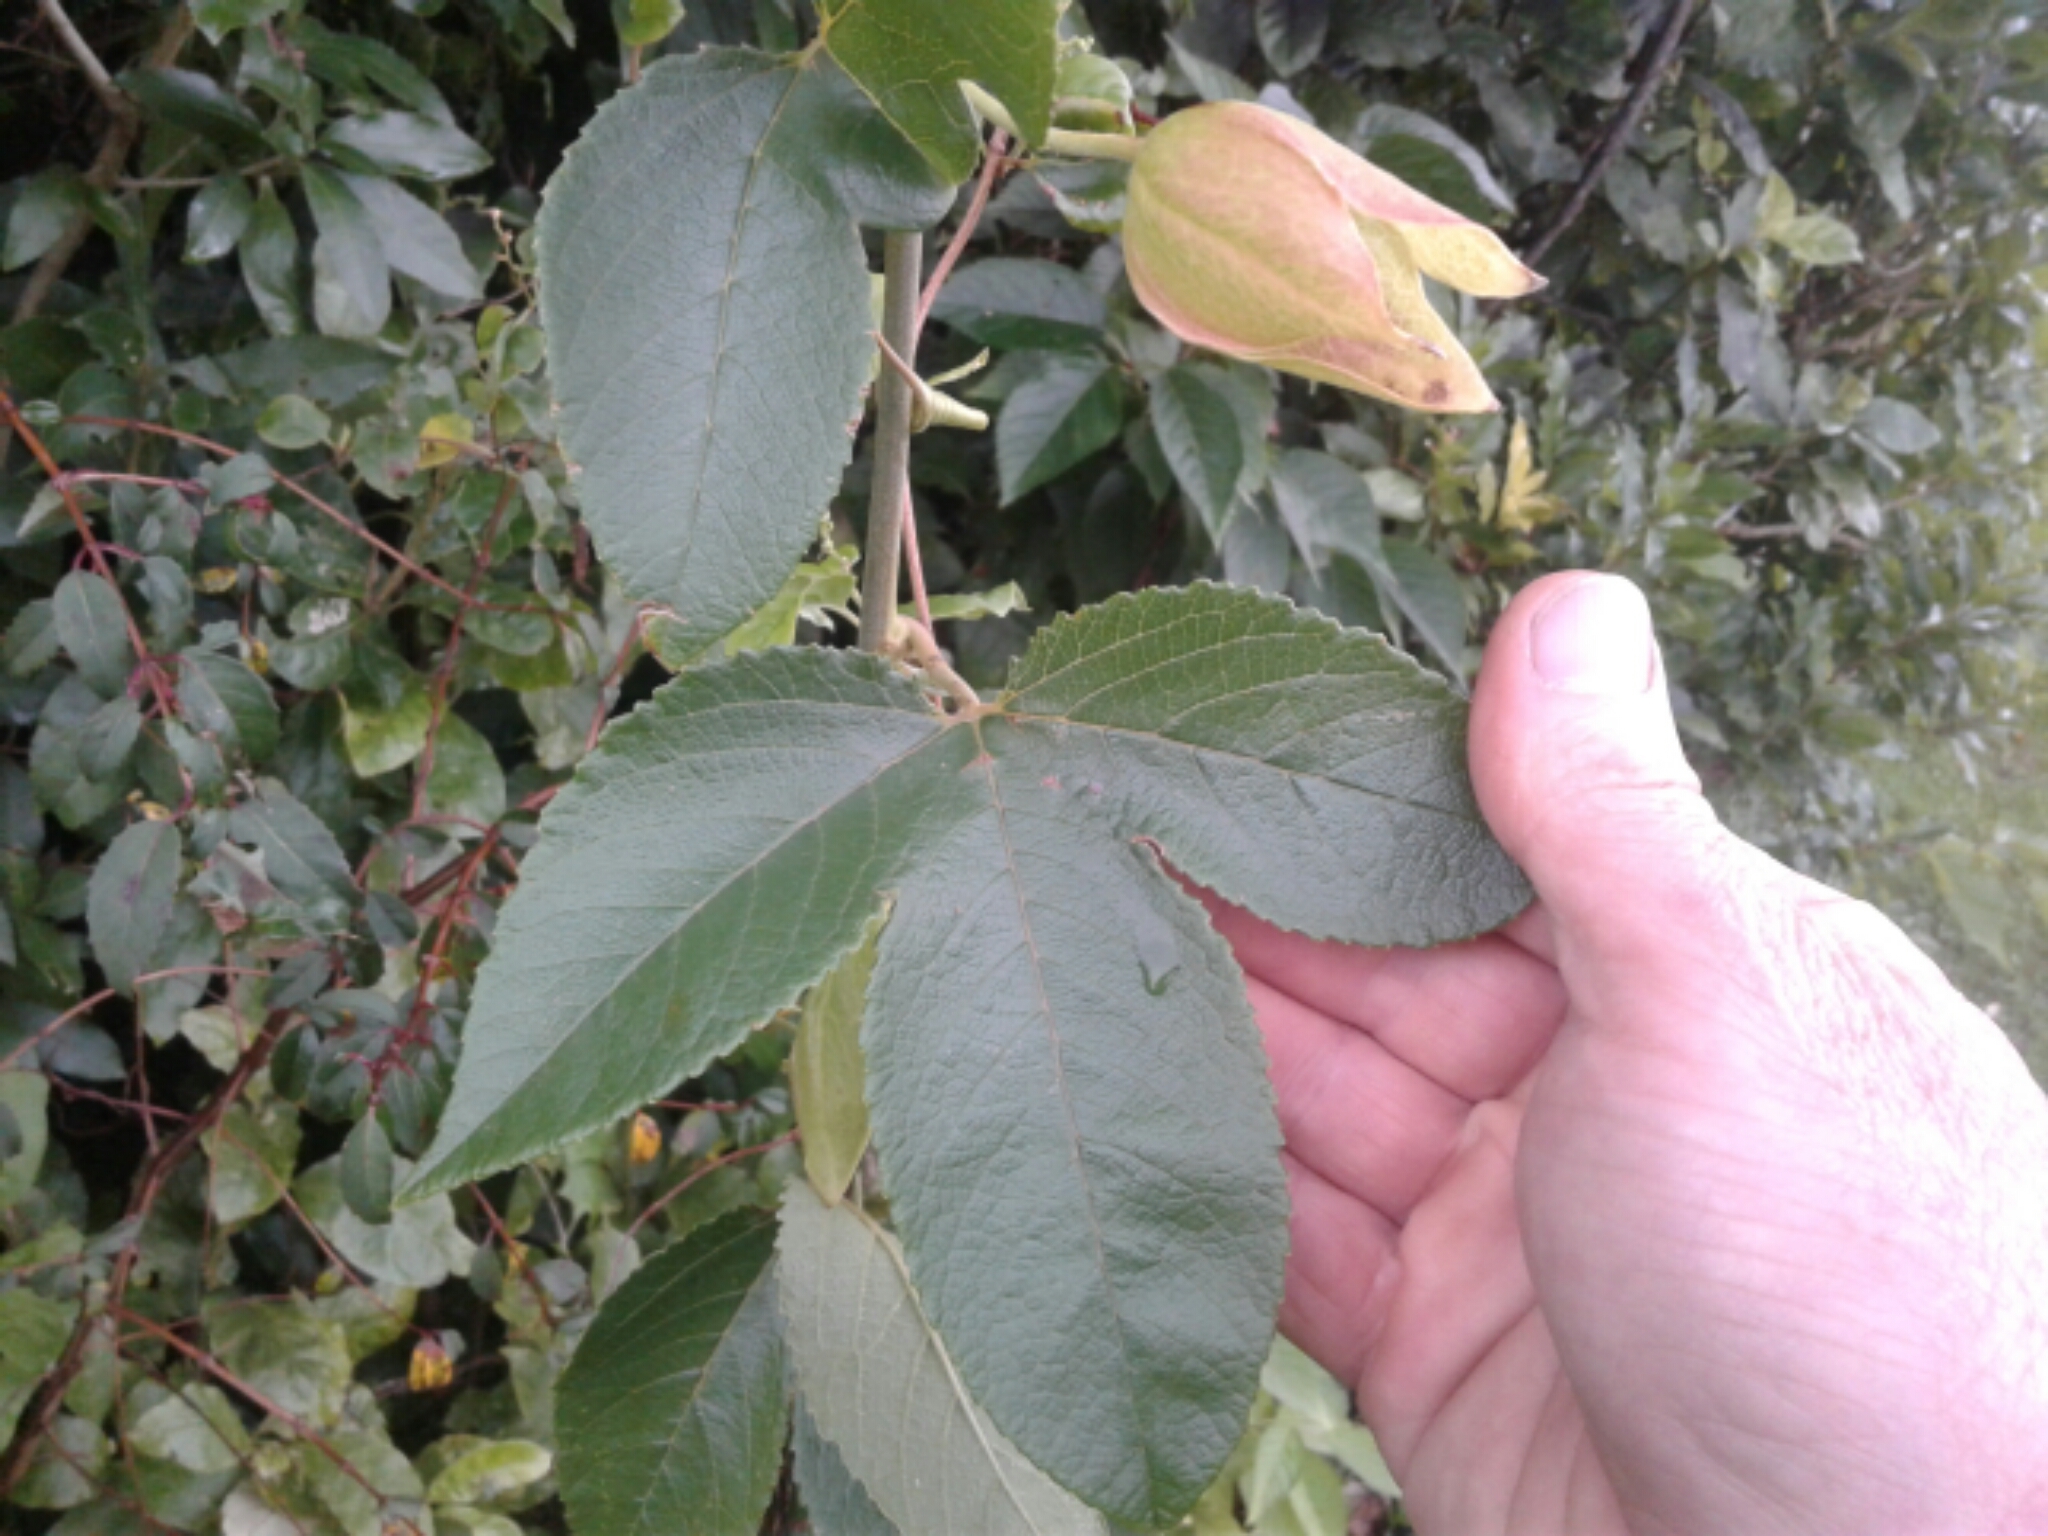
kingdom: Plantae
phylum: Tracheophyta
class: Magnoliopsida
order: Malpighiales
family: Passifloraceae
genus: Passiflora
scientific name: Passiflora tripartita
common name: Banana poka
